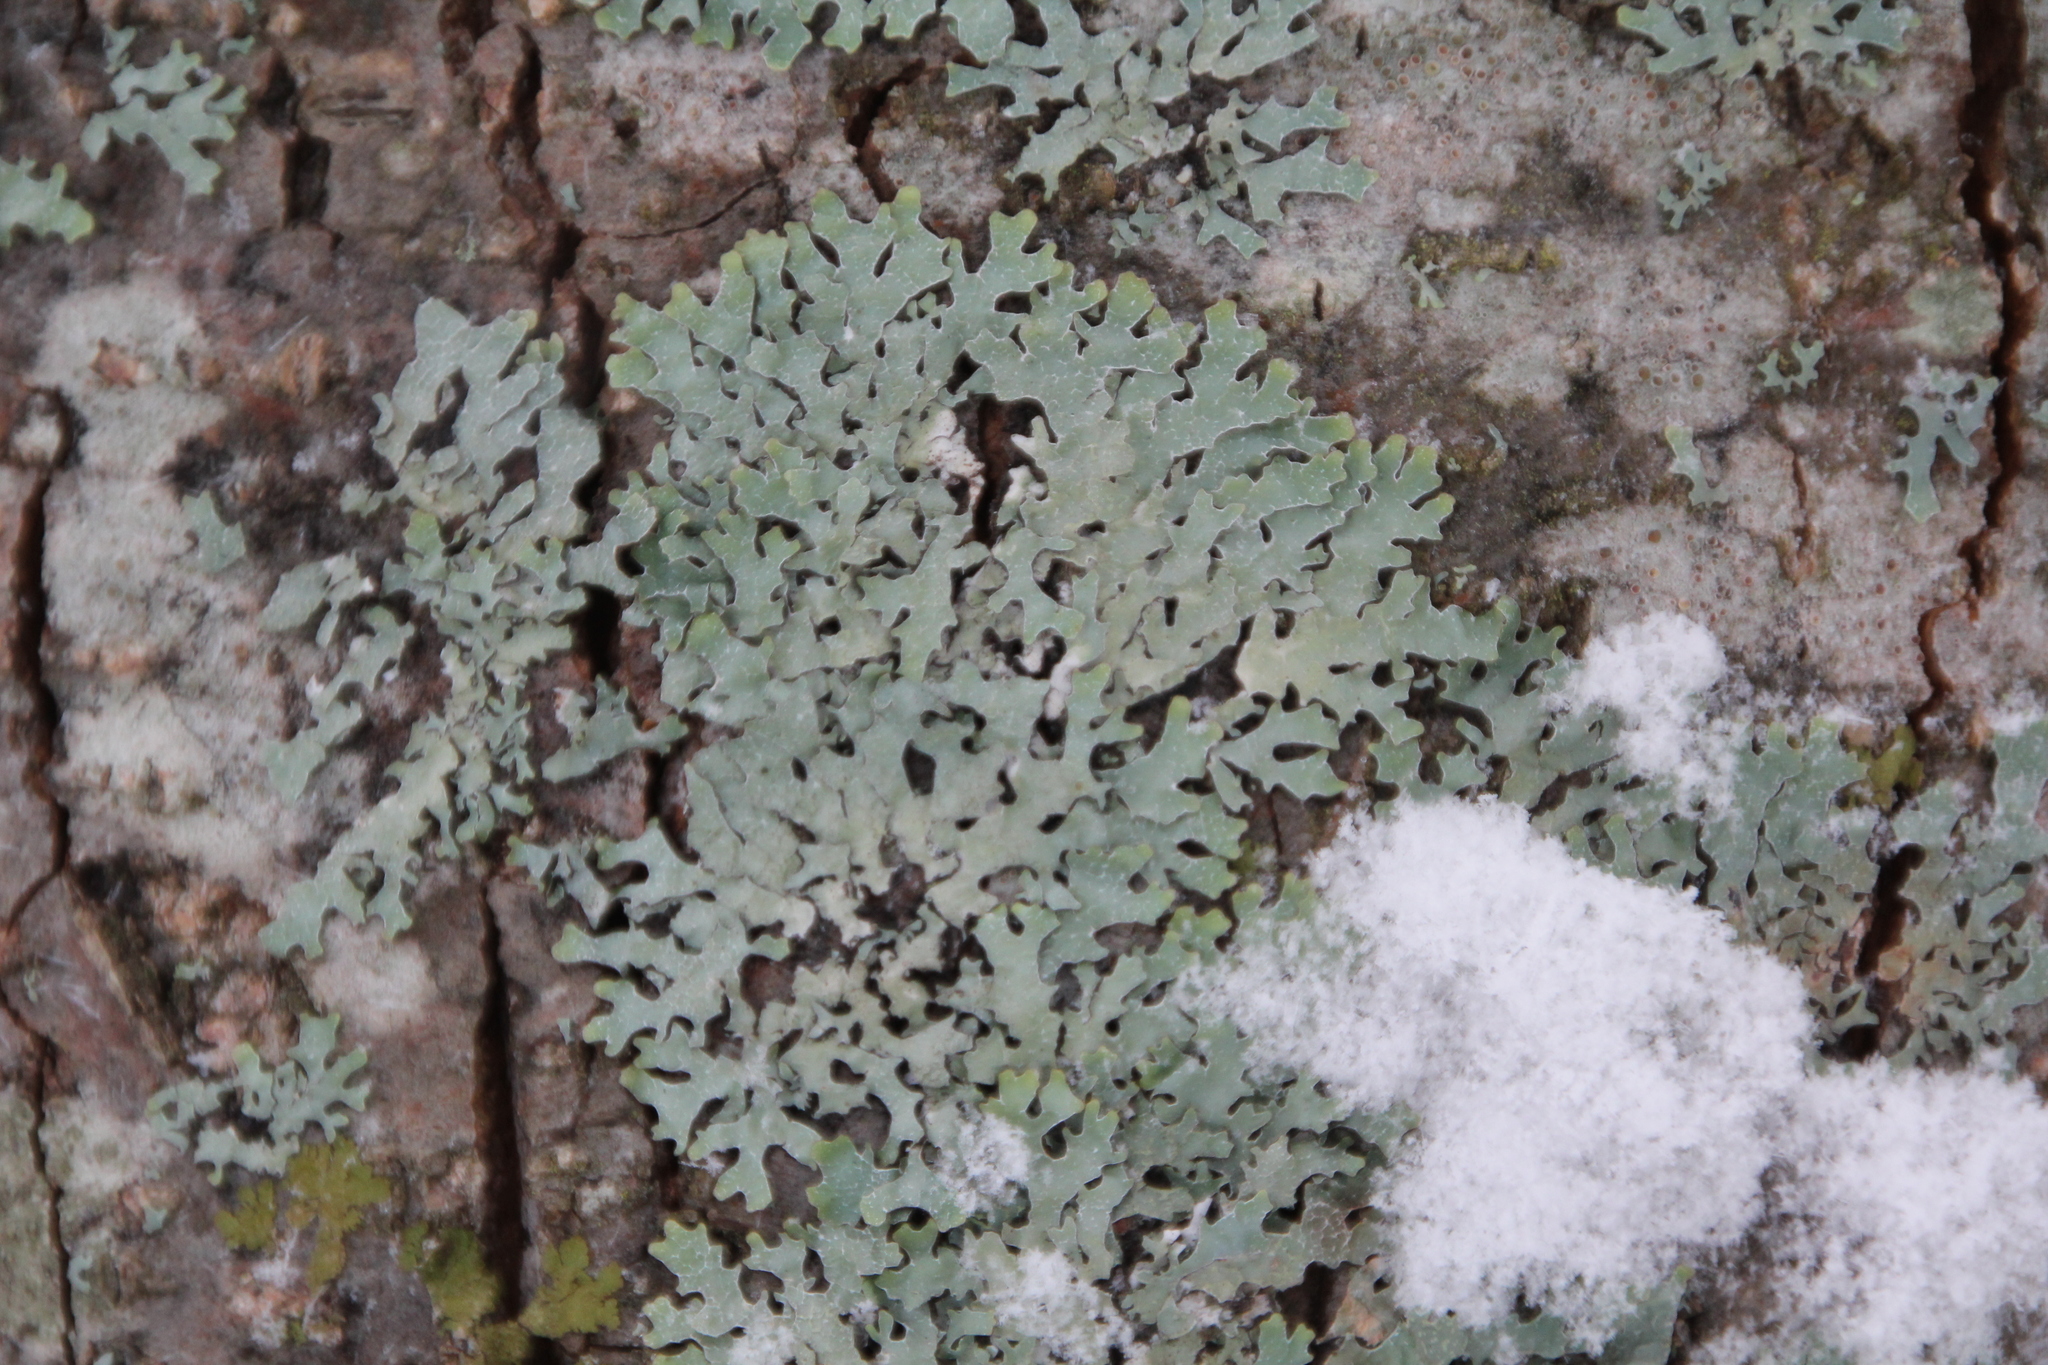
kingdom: Fungi
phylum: Ascomycota
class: Lecanoromycetes
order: Lecanorales
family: Parmeliaceae
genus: Parmelia
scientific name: Parmelia sulcata
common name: Netted shield lichen
